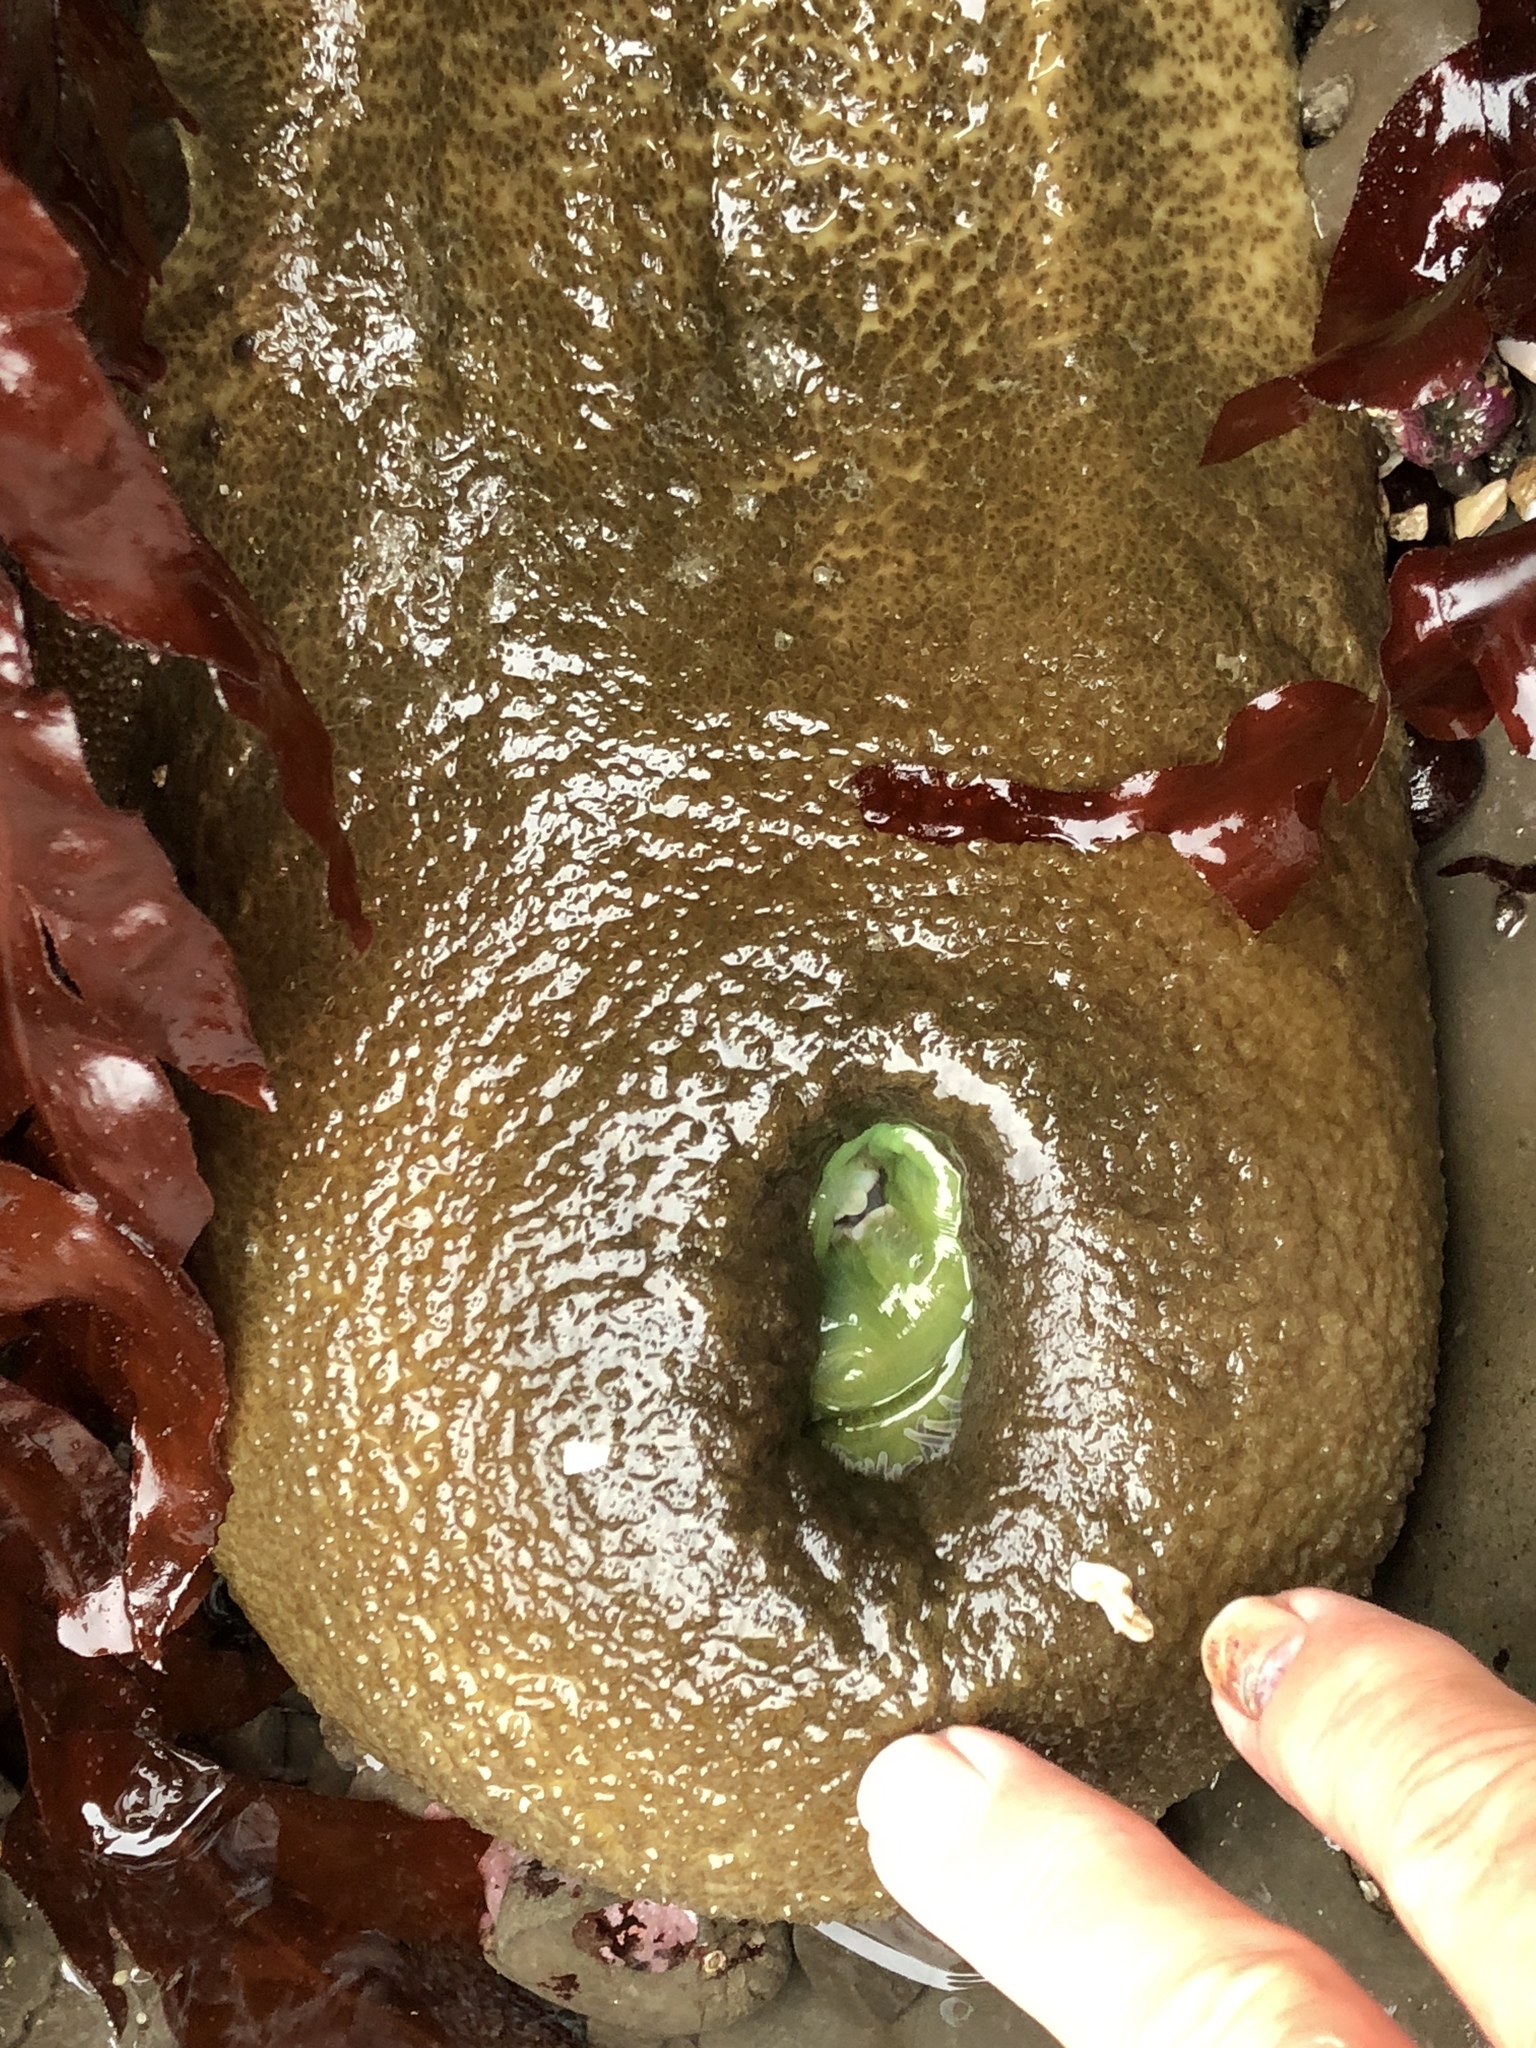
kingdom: Animalia
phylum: Cnidaria
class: Anthozoa
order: Actiniaria
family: Actiniidae
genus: Anthopleura
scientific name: Anthopleura xanthogrammica
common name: Giant green anemone
